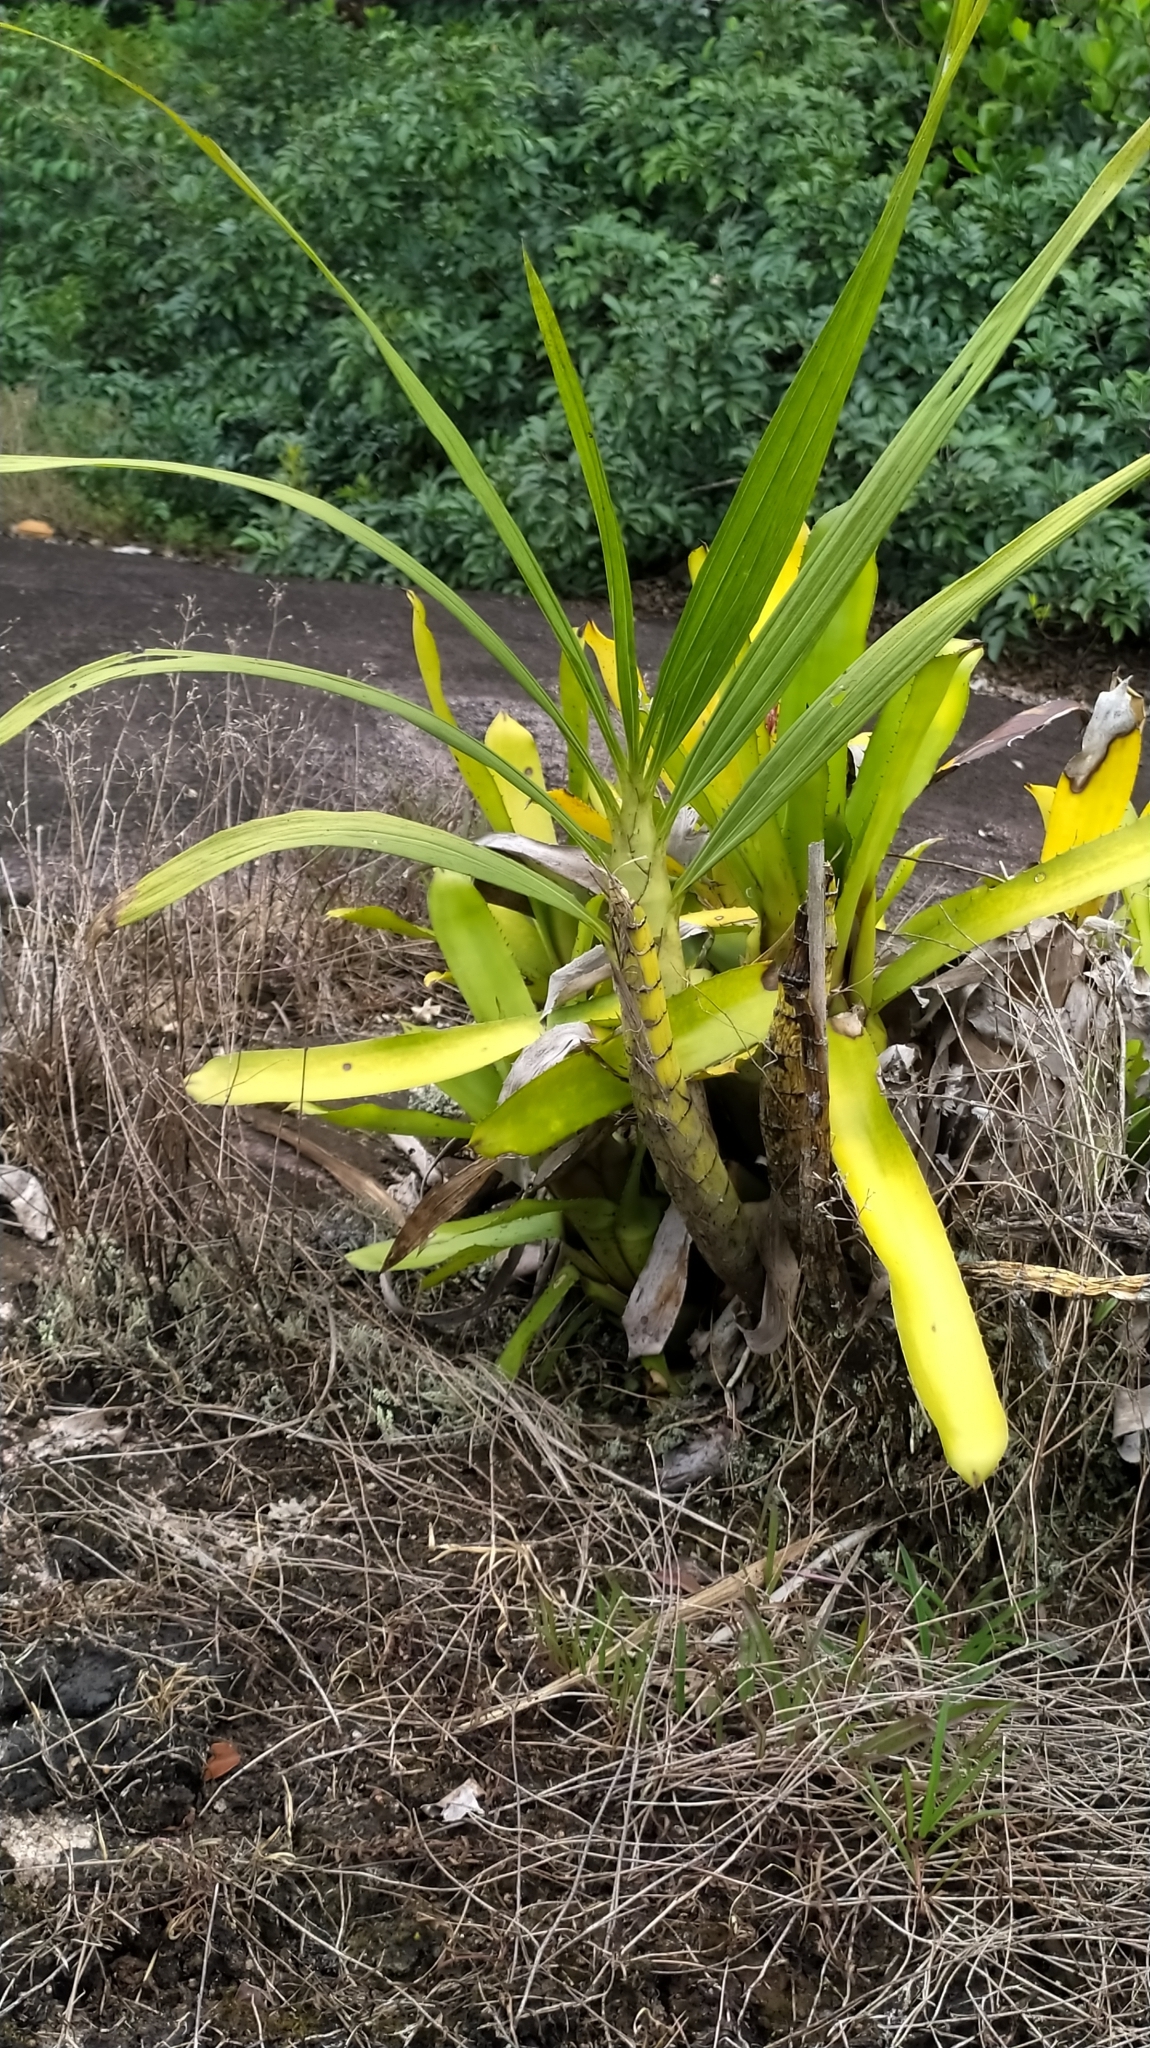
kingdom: Plantae
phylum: Tracheophyta
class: Liliopsida
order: Asparagales
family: Orchidaceae
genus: Cyrtopodium
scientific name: Cyrtopodium andersonii
